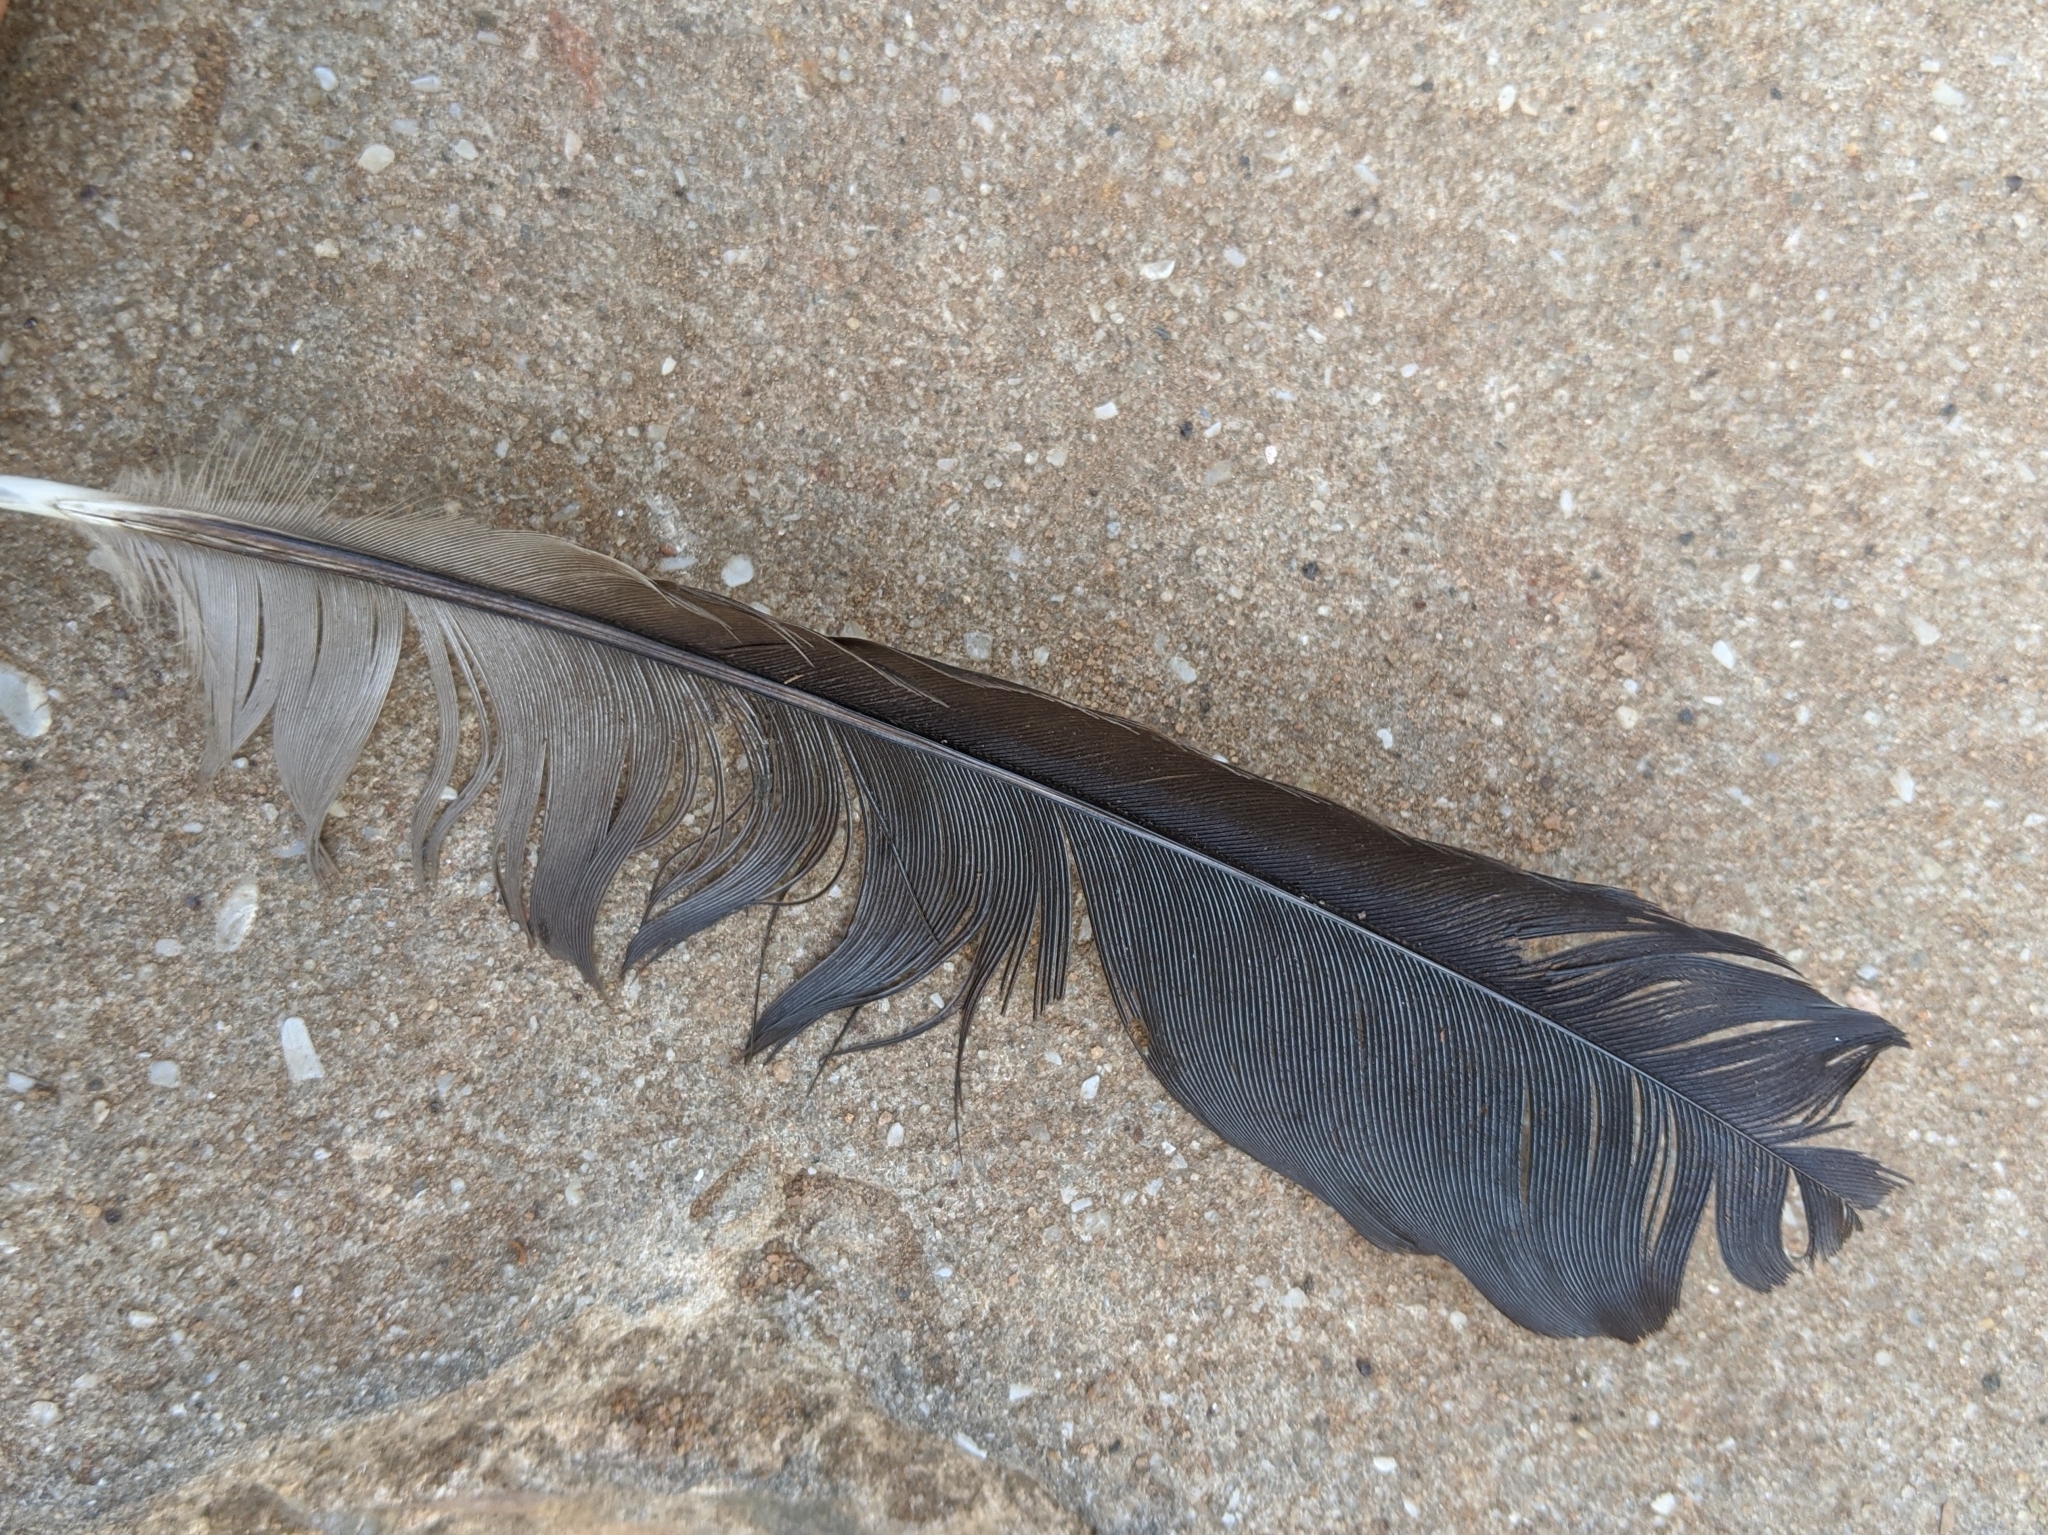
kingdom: Animalia
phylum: Chordata
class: Aves
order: Musophagiformes
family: Musophagidae
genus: Crinifer
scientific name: Crinifer piscator
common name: Western plantain-eater
